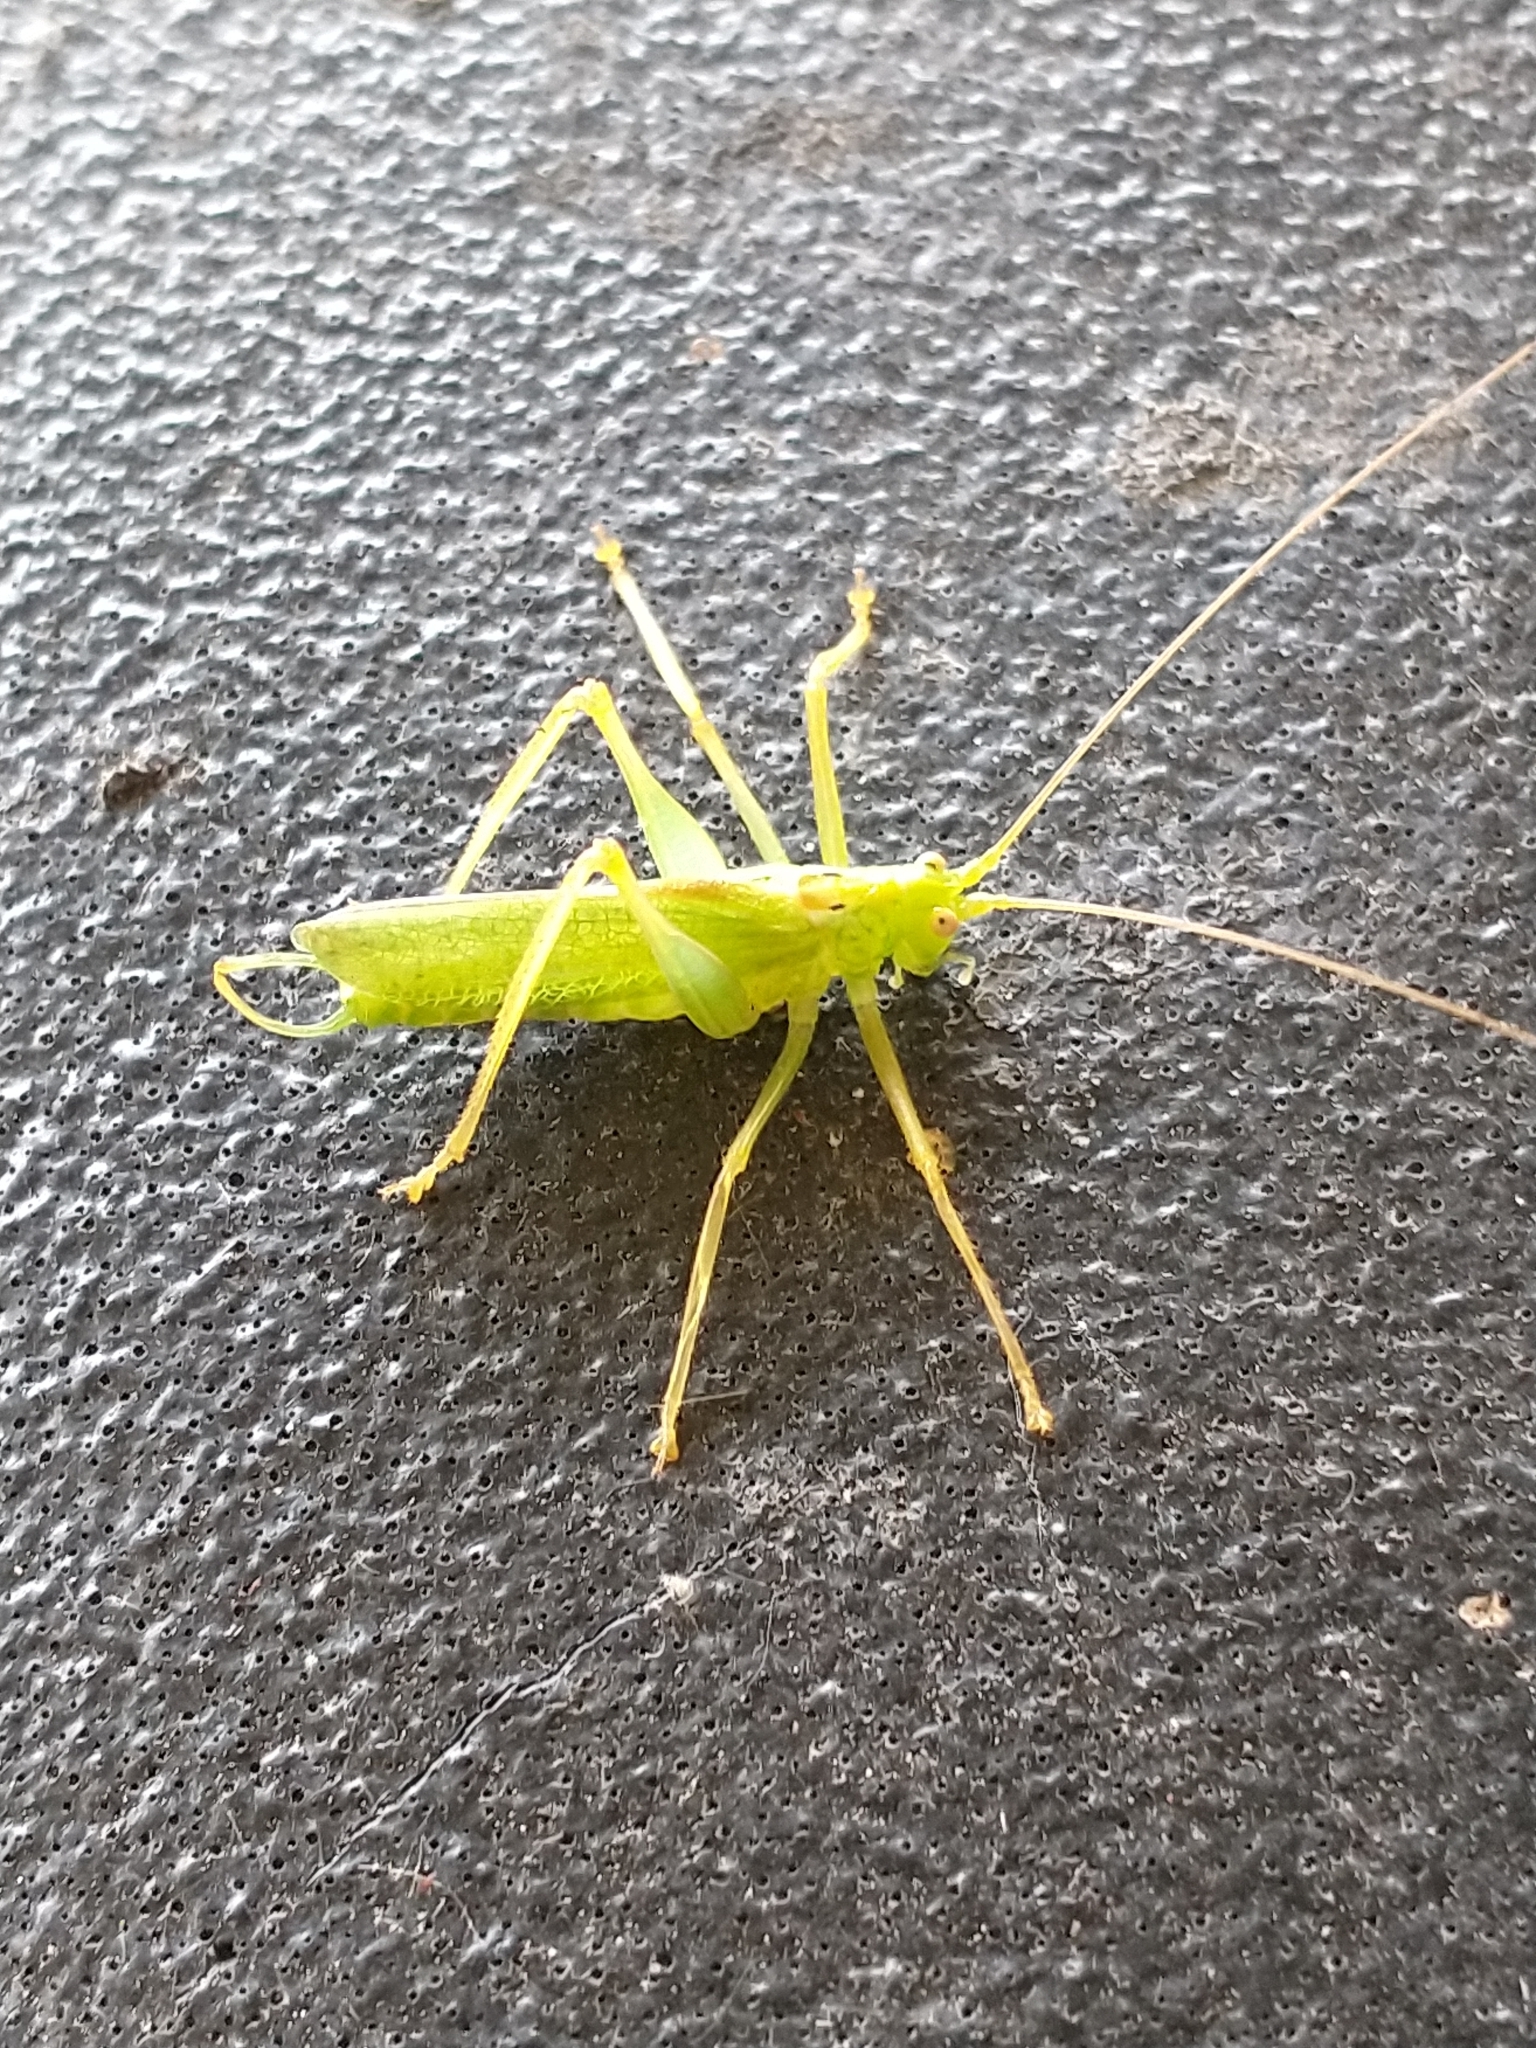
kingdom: Animalia
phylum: Arthropoda
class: Insecta
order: Orthoptera
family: Tettigoniidae
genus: Meconema
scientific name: Meconema thalassinum
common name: Oak bush-cricket
